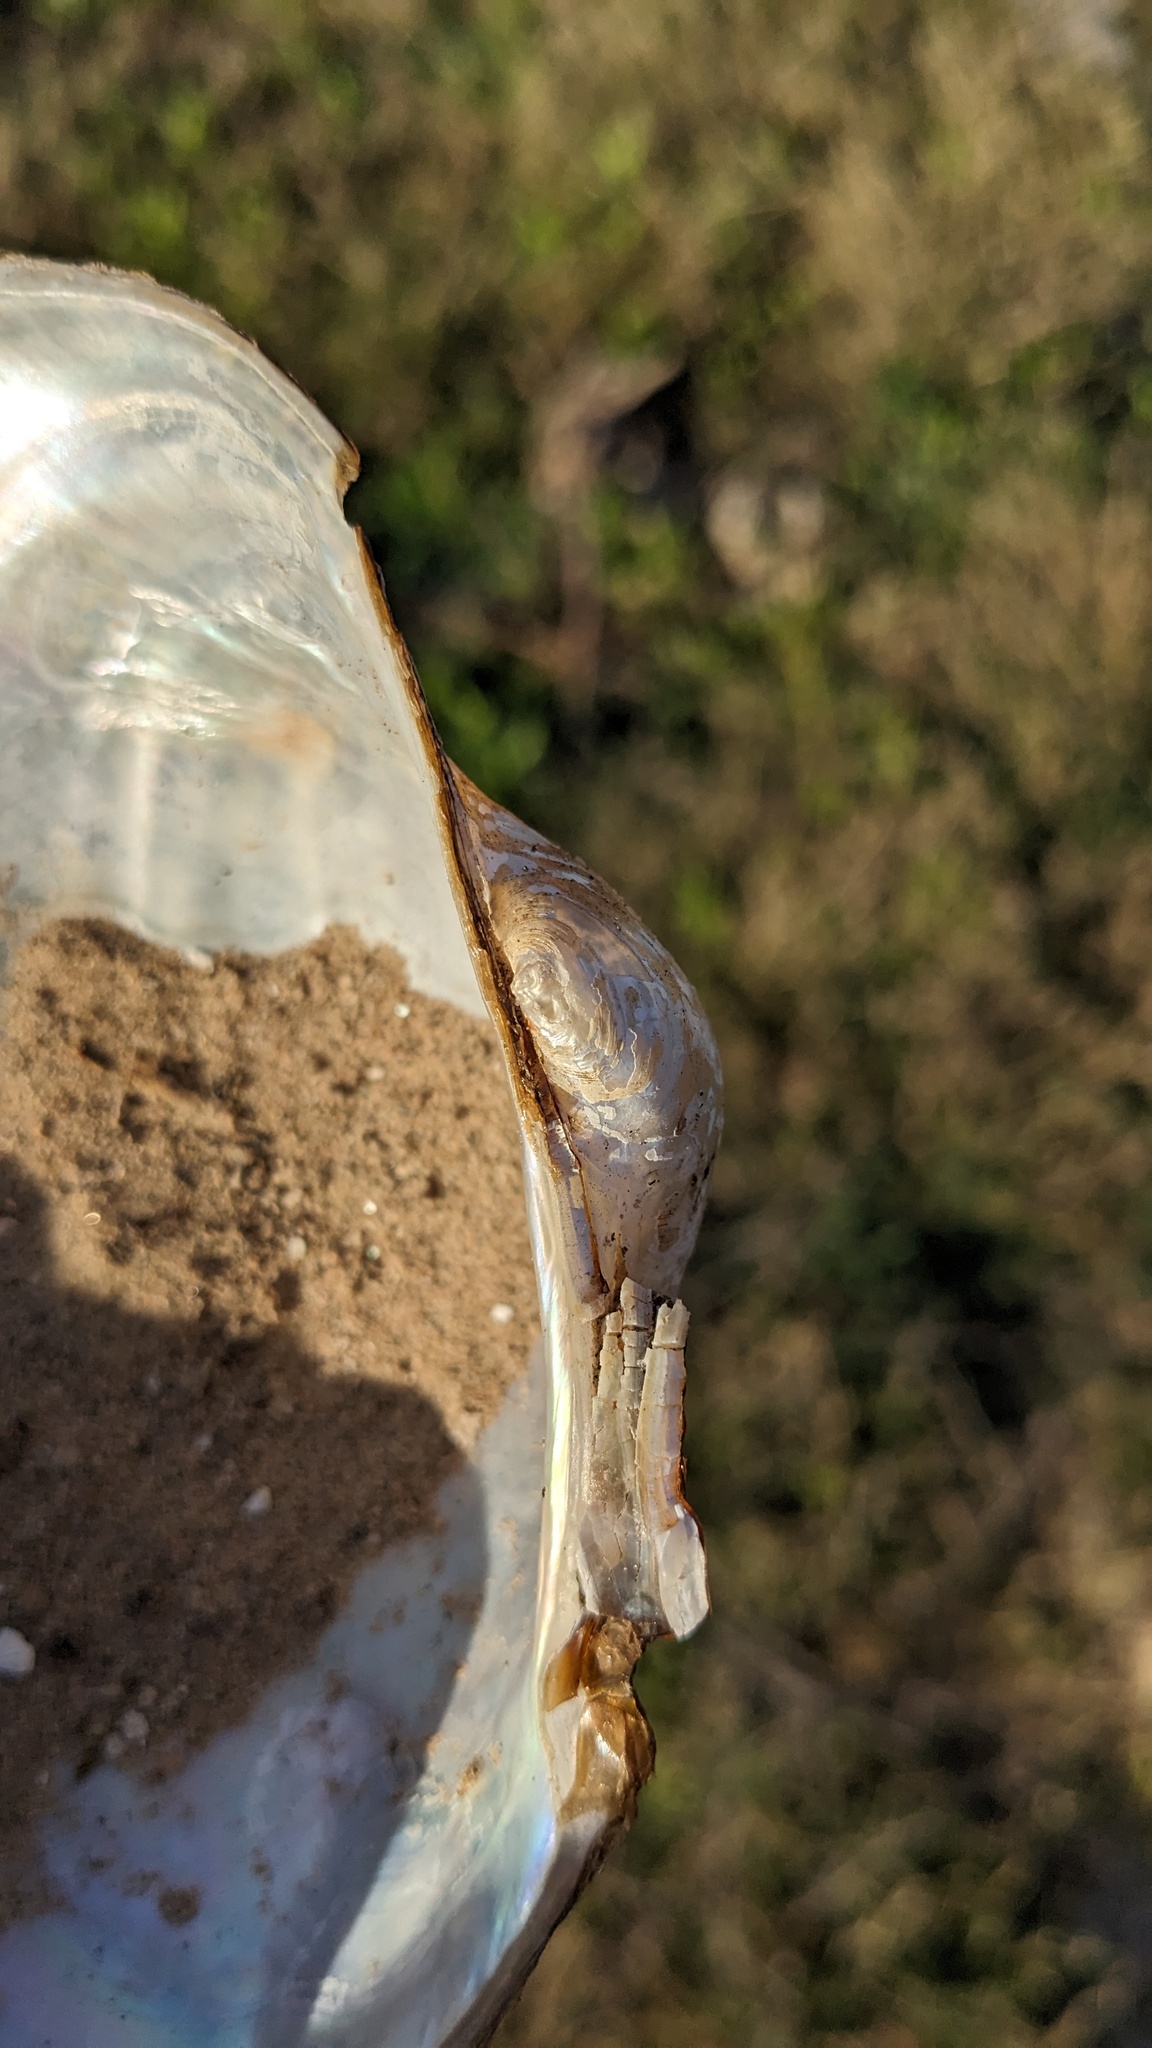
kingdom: Animalia
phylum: Mollusca
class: Bivalvia
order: Unionida
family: Unionidae
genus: Pyganodon
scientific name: Pyganodon grandis
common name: Giant floater
